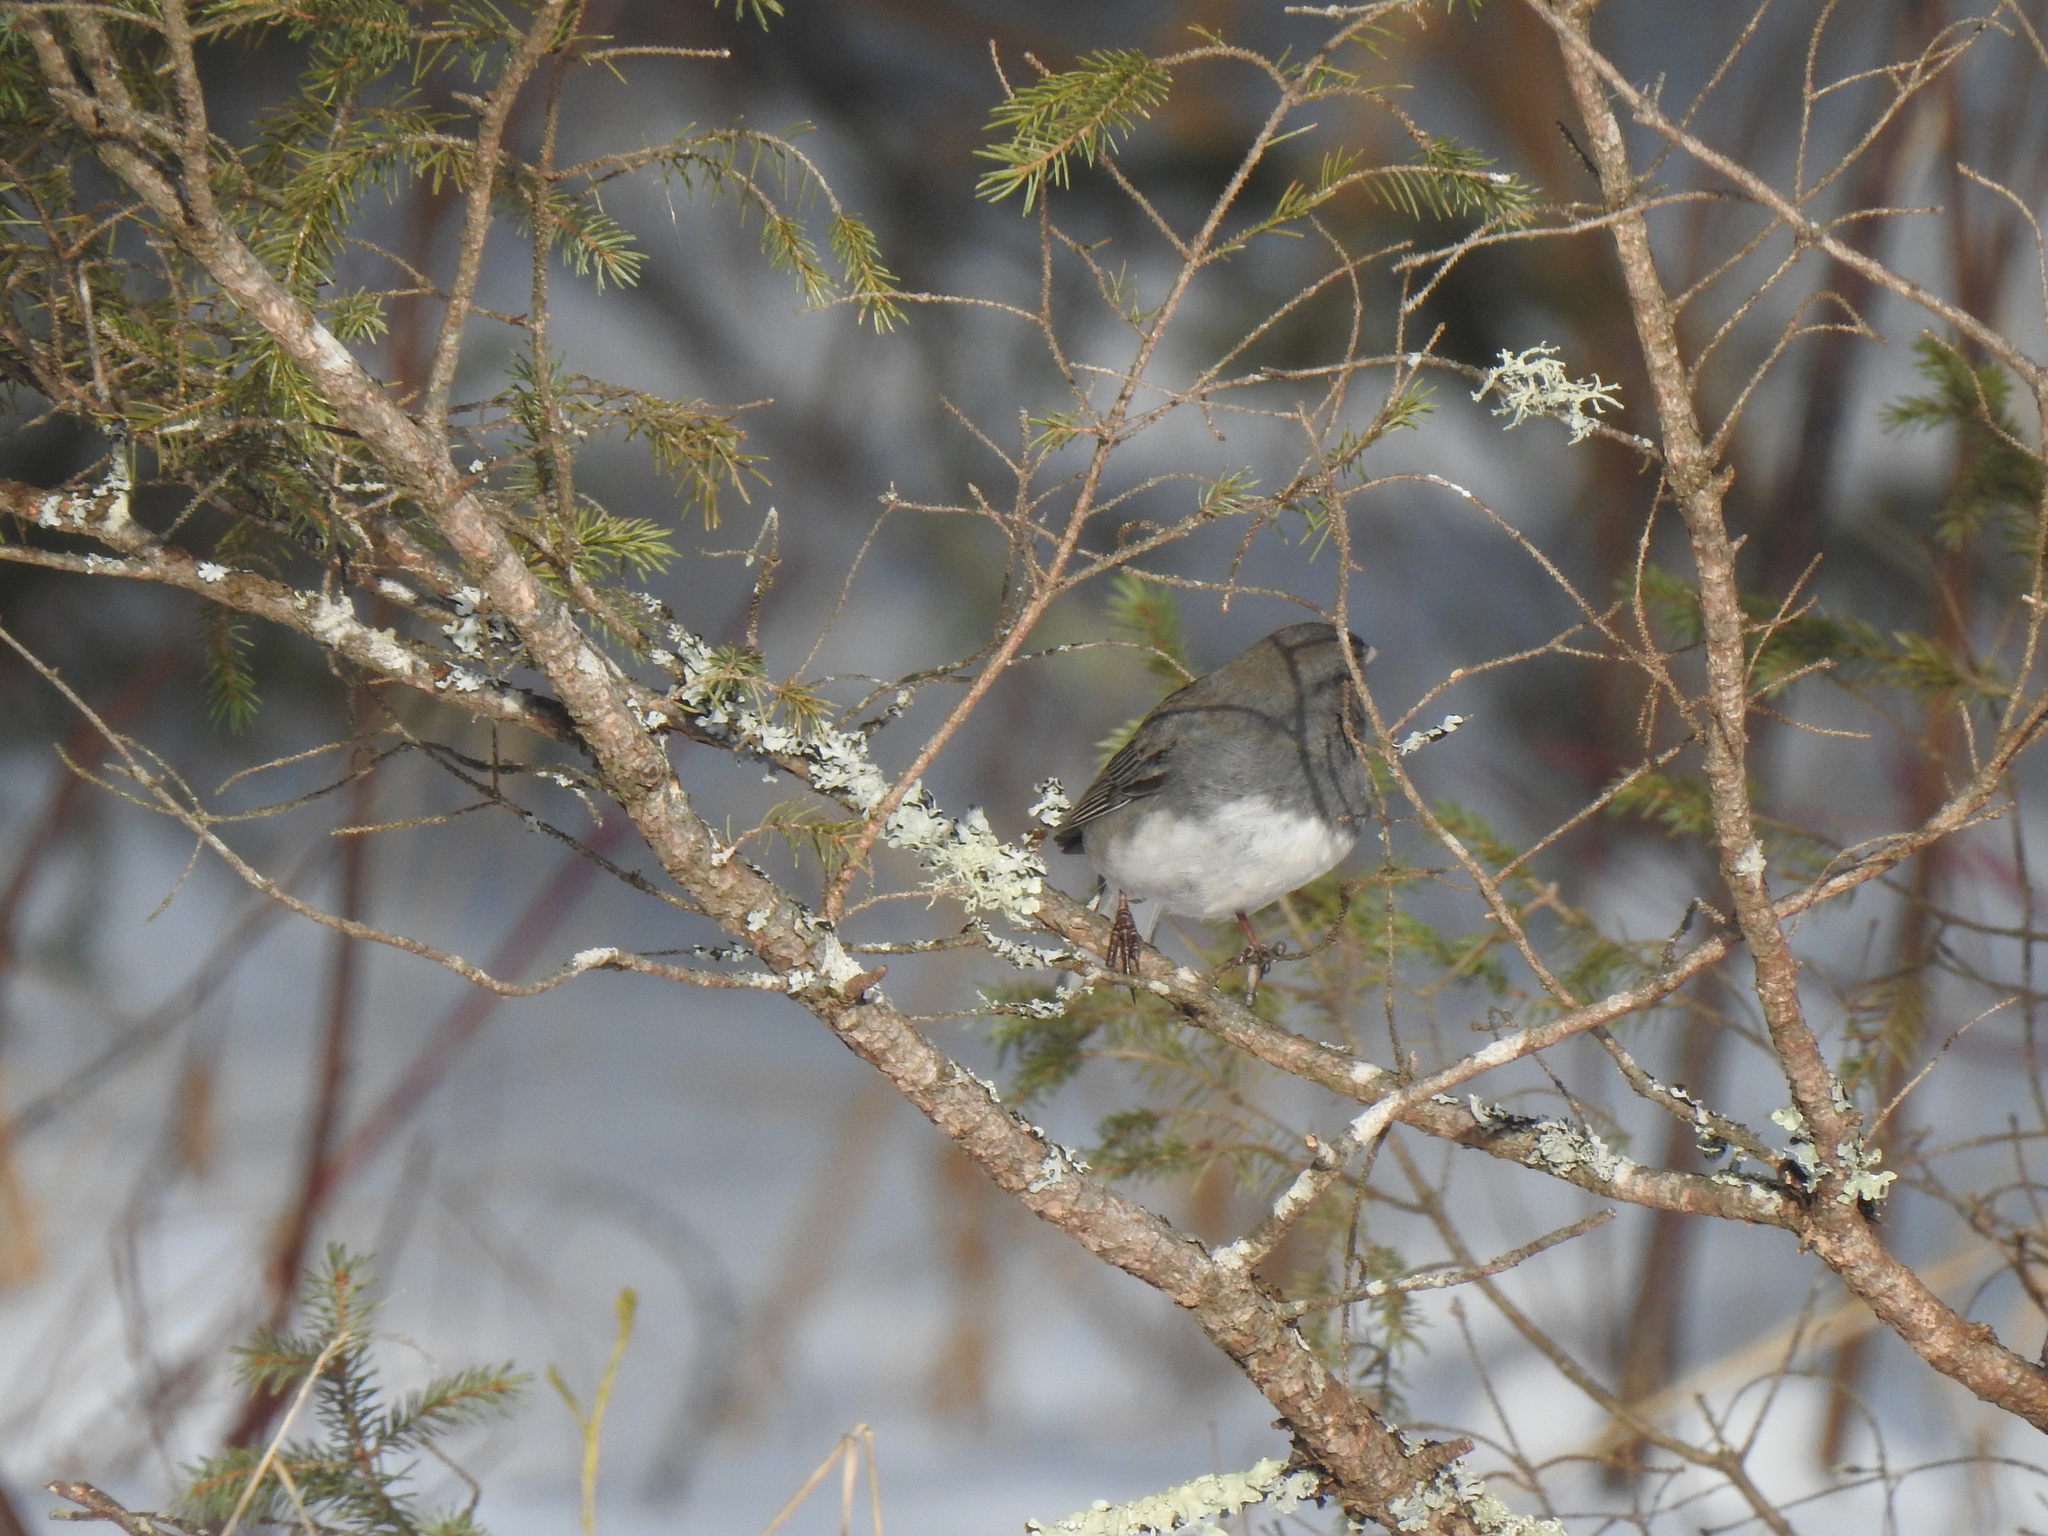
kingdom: Animalia
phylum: Chordata
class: Aves
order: Passeriformes
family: Passerellidae
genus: Junco
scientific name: Junco hyemalis
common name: Dark-eyed junco
